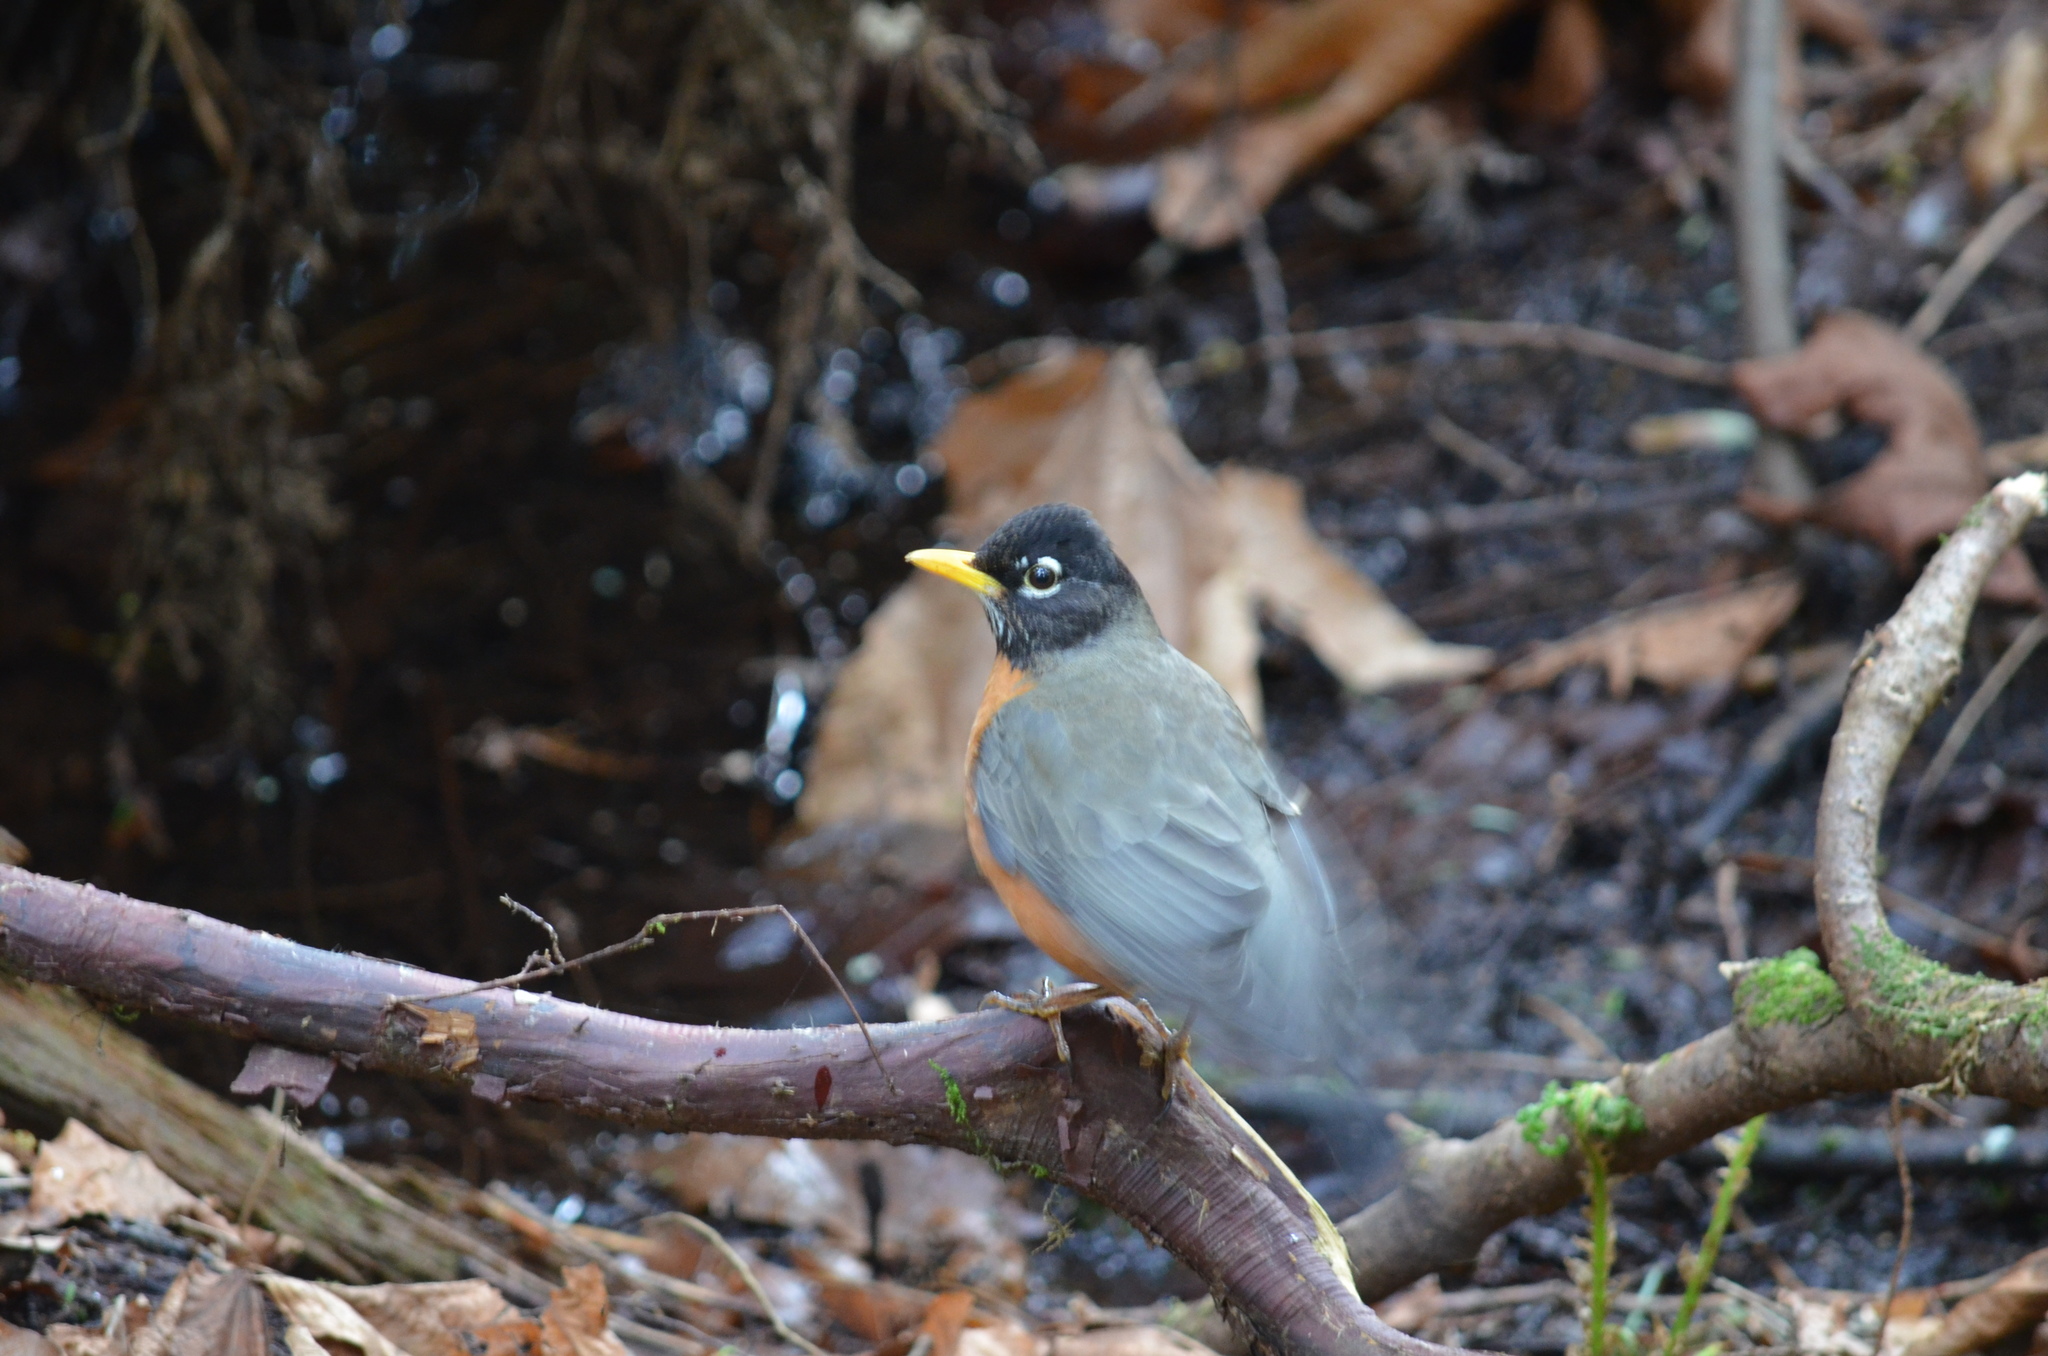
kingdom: Animalia
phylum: Chordata
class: Aves
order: Passeriformes
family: Turdidae
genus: Turdus
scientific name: Turdus migratorius
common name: American robin
